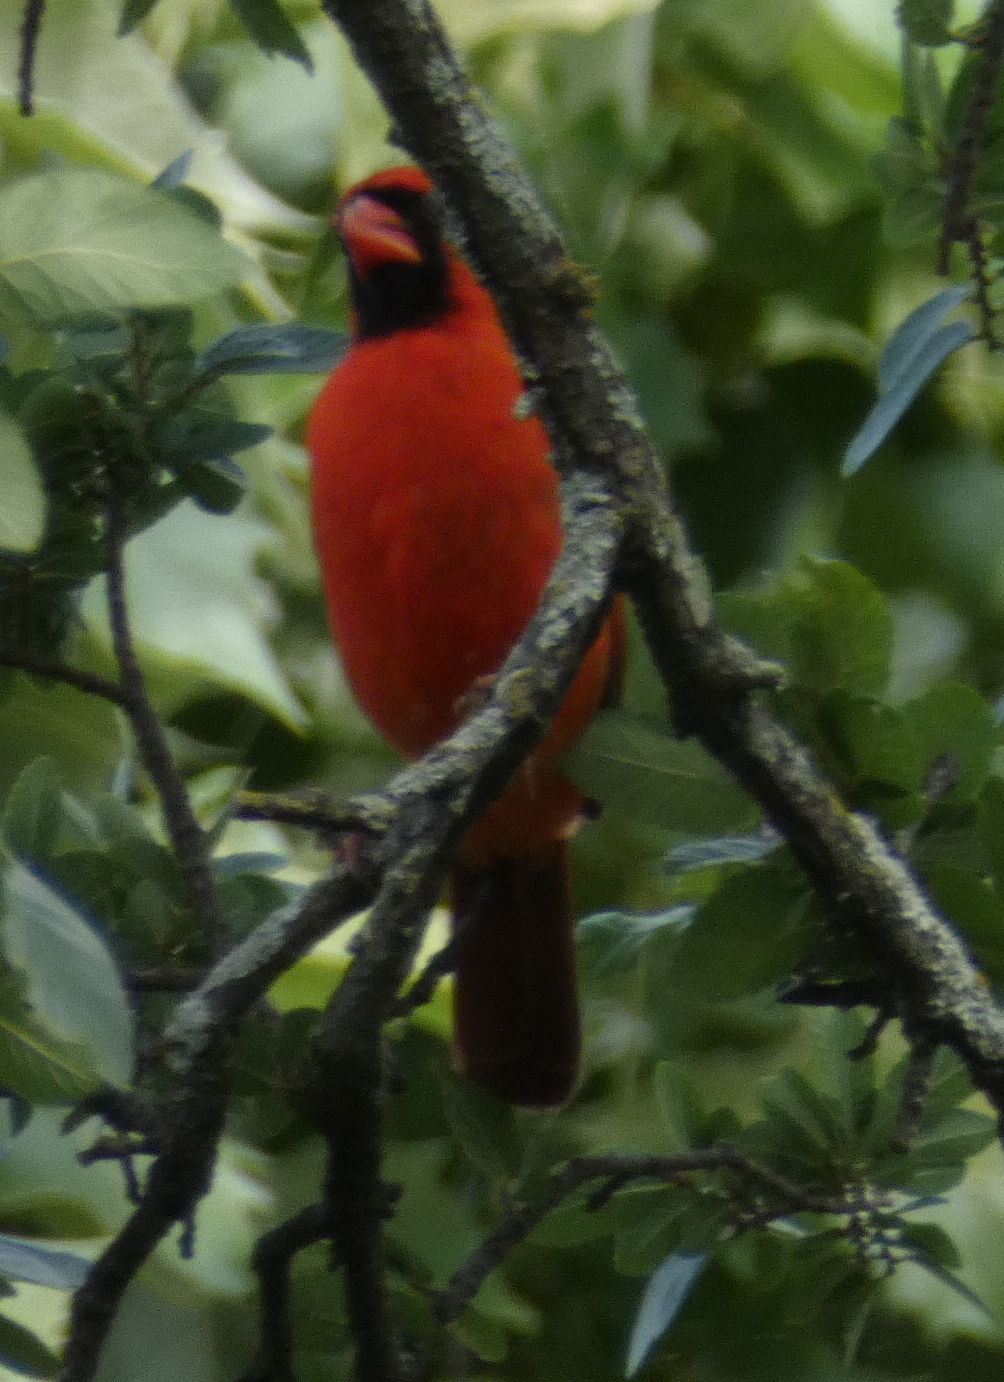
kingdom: Animalia
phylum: Chordata
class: Aves
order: Passeriformes
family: Cardinalidae
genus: Cardinalis
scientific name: Cardinalis cardinalis
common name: Northern cardinal
